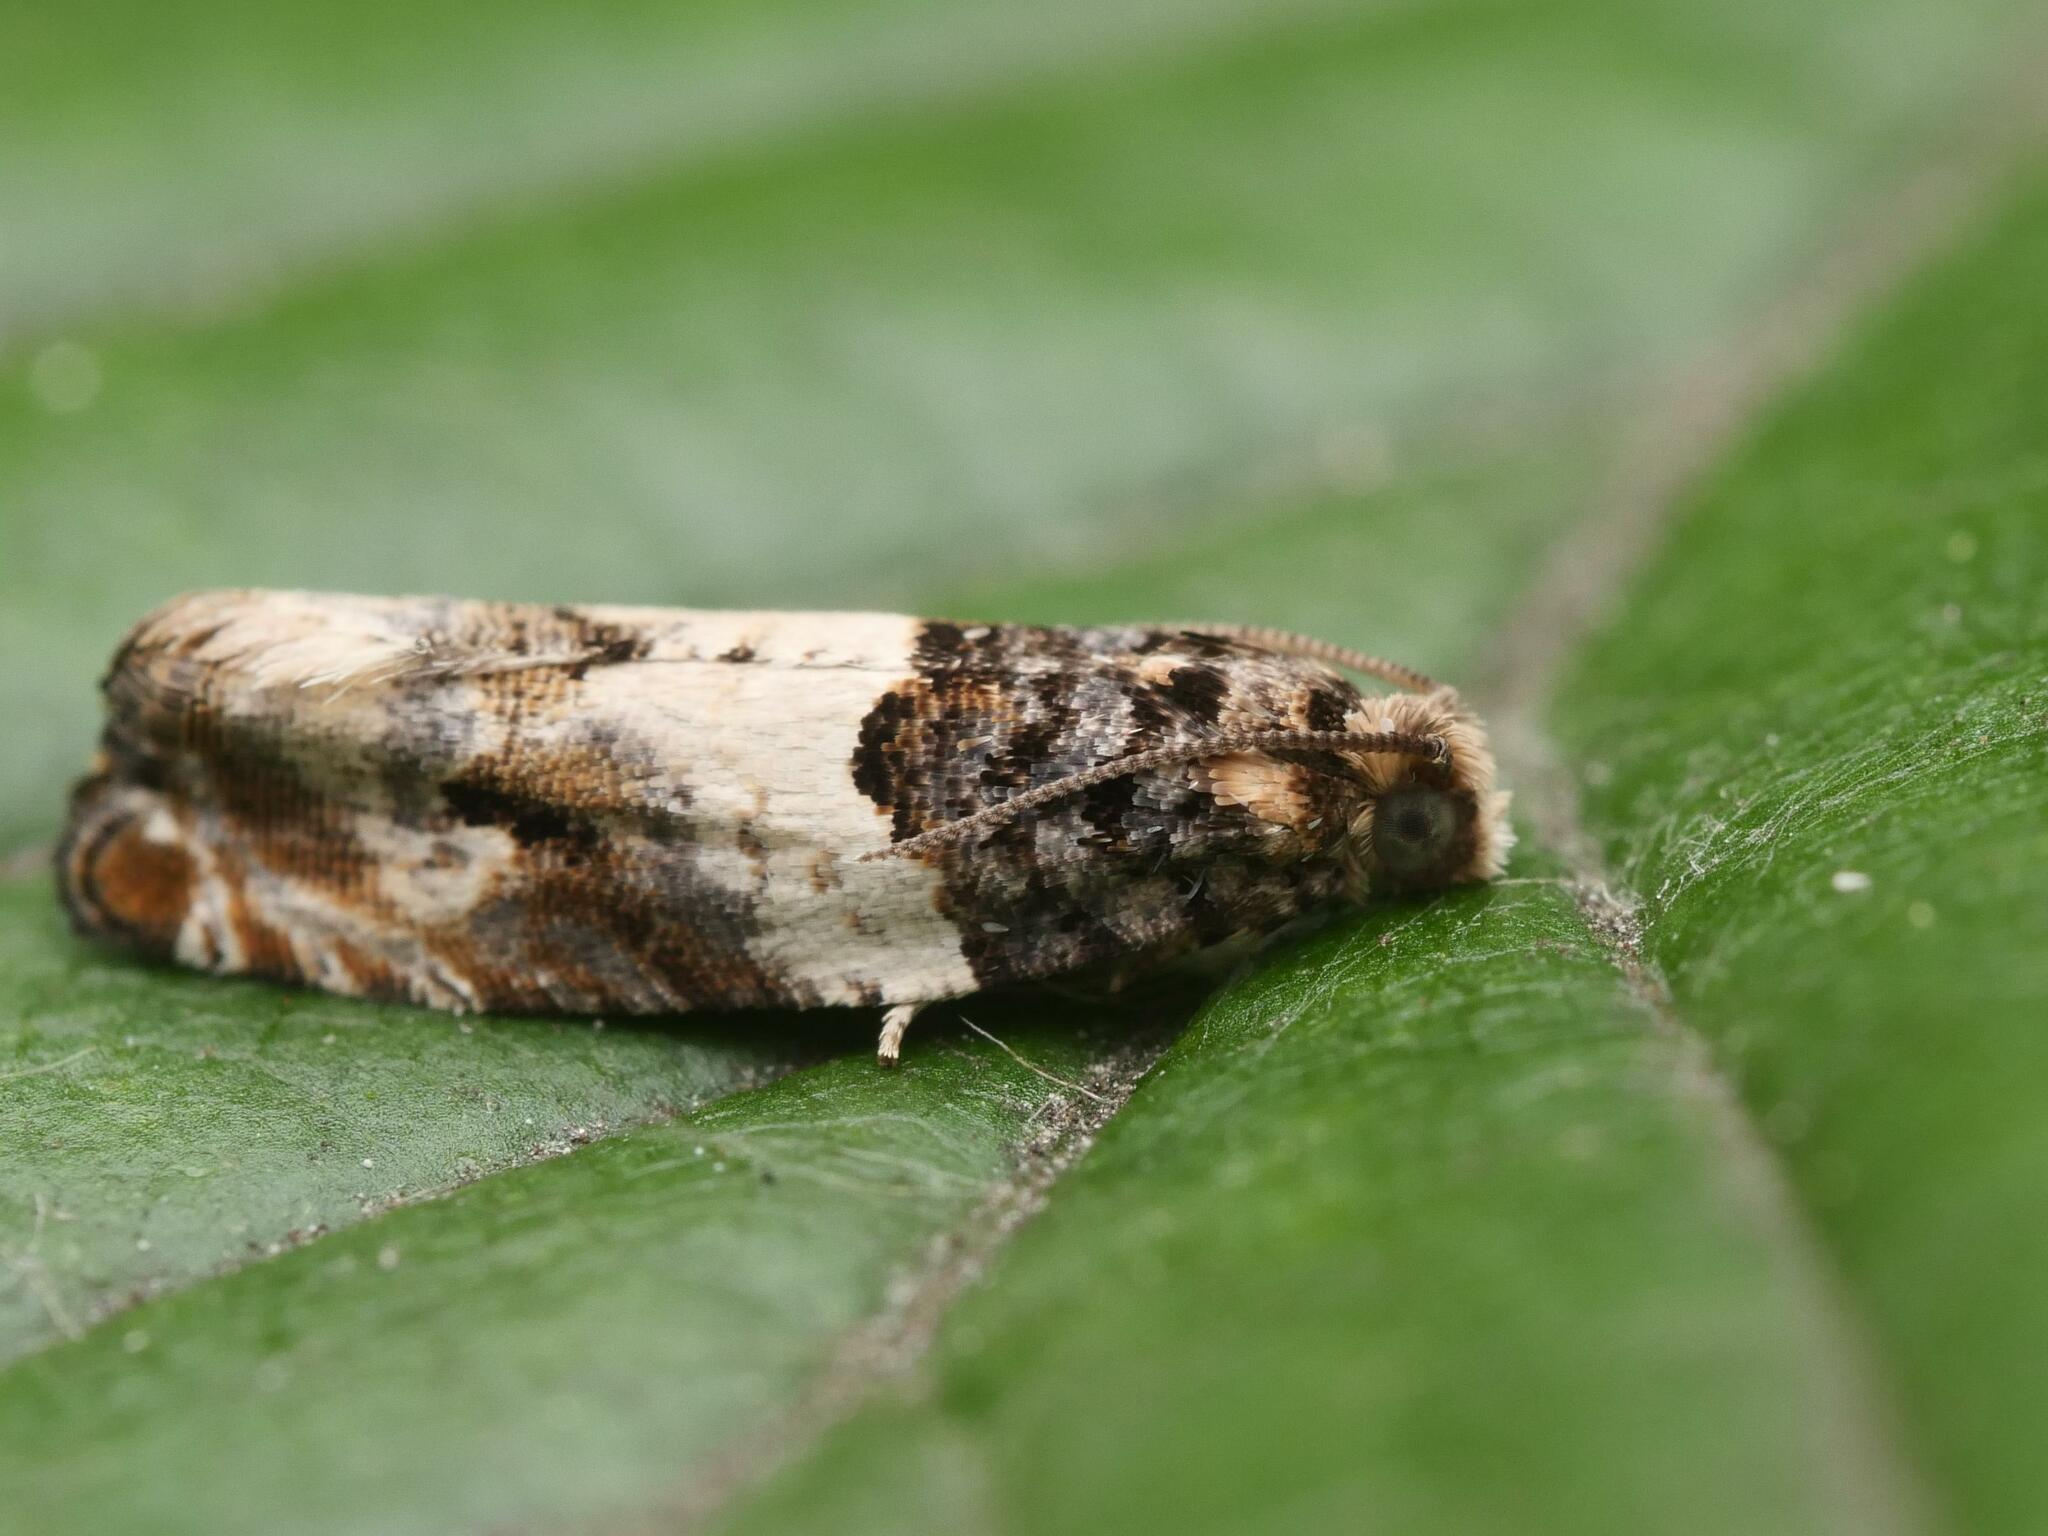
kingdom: Animalia
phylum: Arthropoda
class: Insecta
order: Lepidoptera
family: Tortricidae
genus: Gypsonoma
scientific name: Gypsonoma dealbana
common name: Common cloaked shoot
